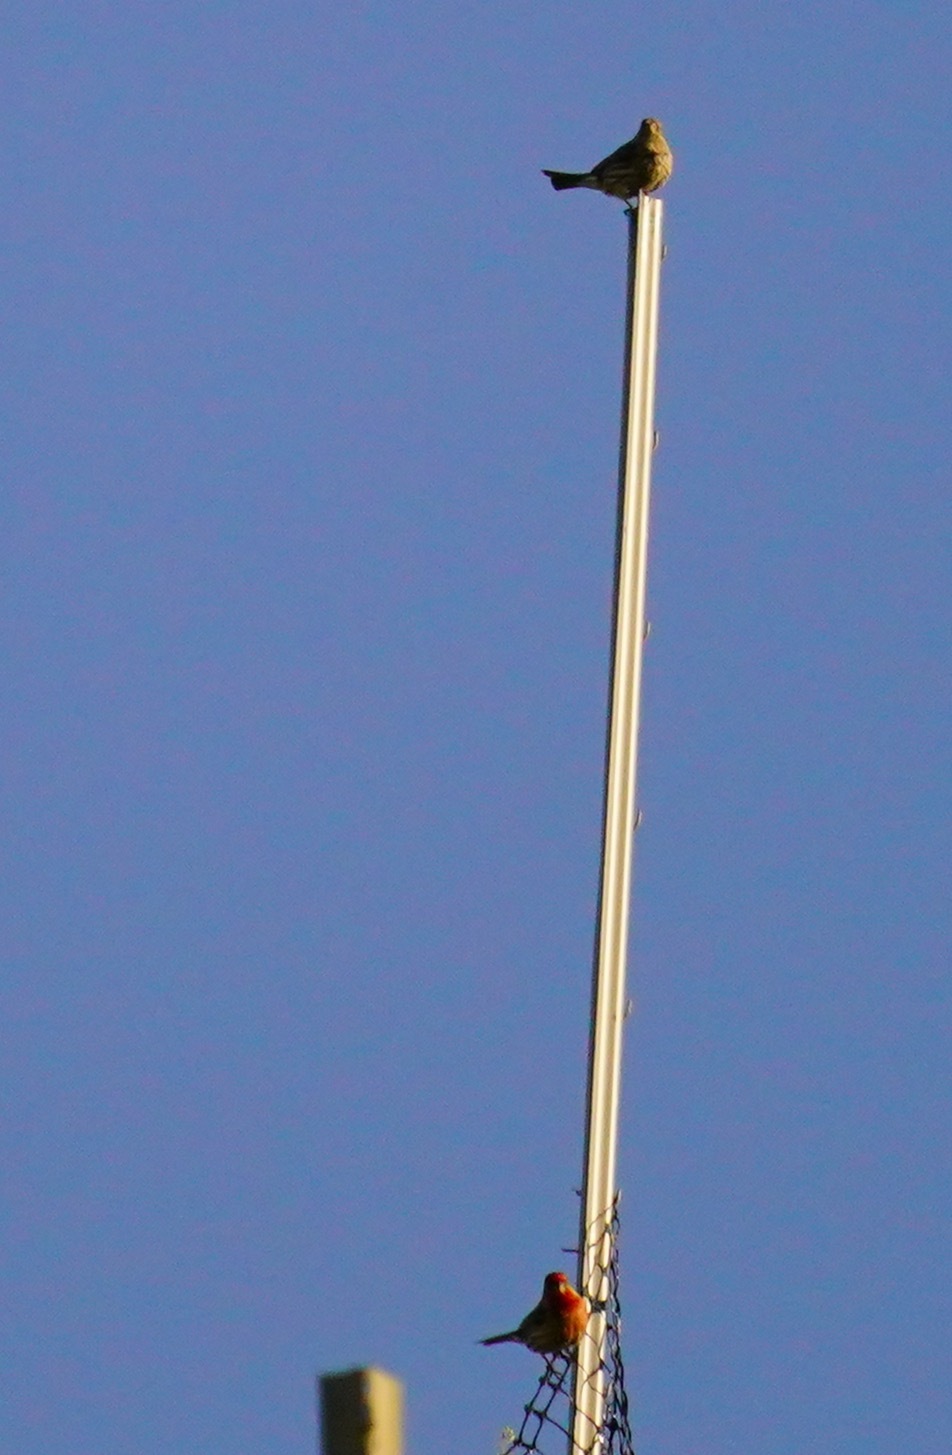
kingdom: Animalia
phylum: Chordata
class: Aves
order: Passeriformes
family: Fringillidae
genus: Haemorhous
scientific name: Haemorhous mexicanus
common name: House finch
